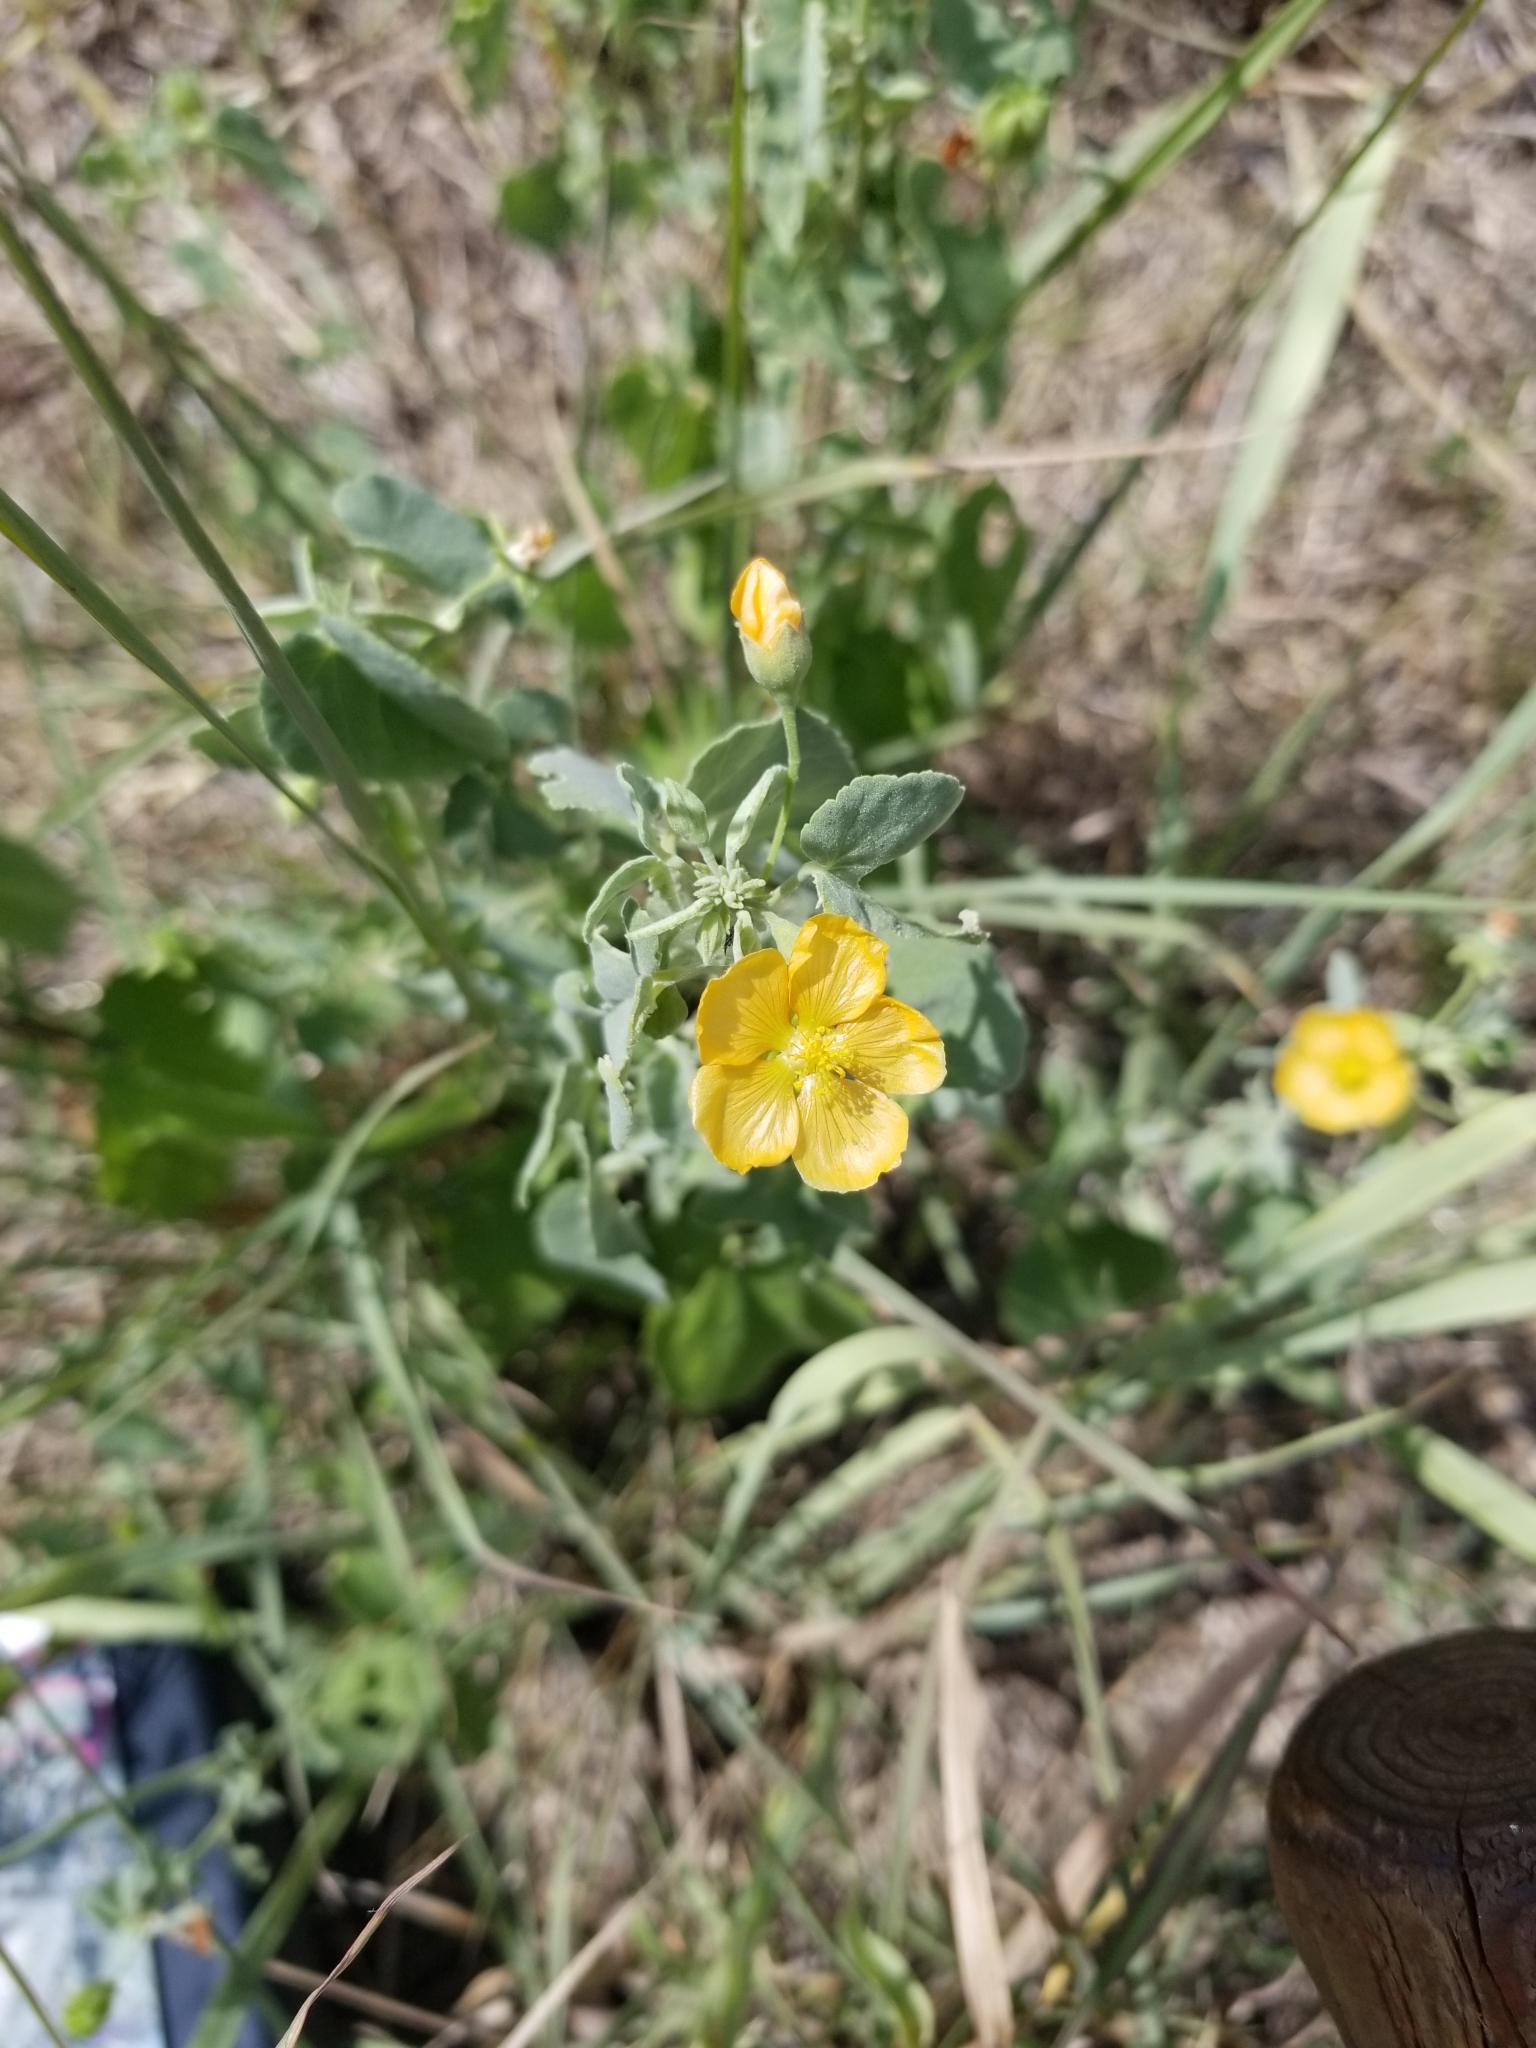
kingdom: Plantae
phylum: Tracheophyta
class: Magnoliopsida
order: Malvales
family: Malvaceae
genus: Abutilon
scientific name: Abutilon fruticosum
